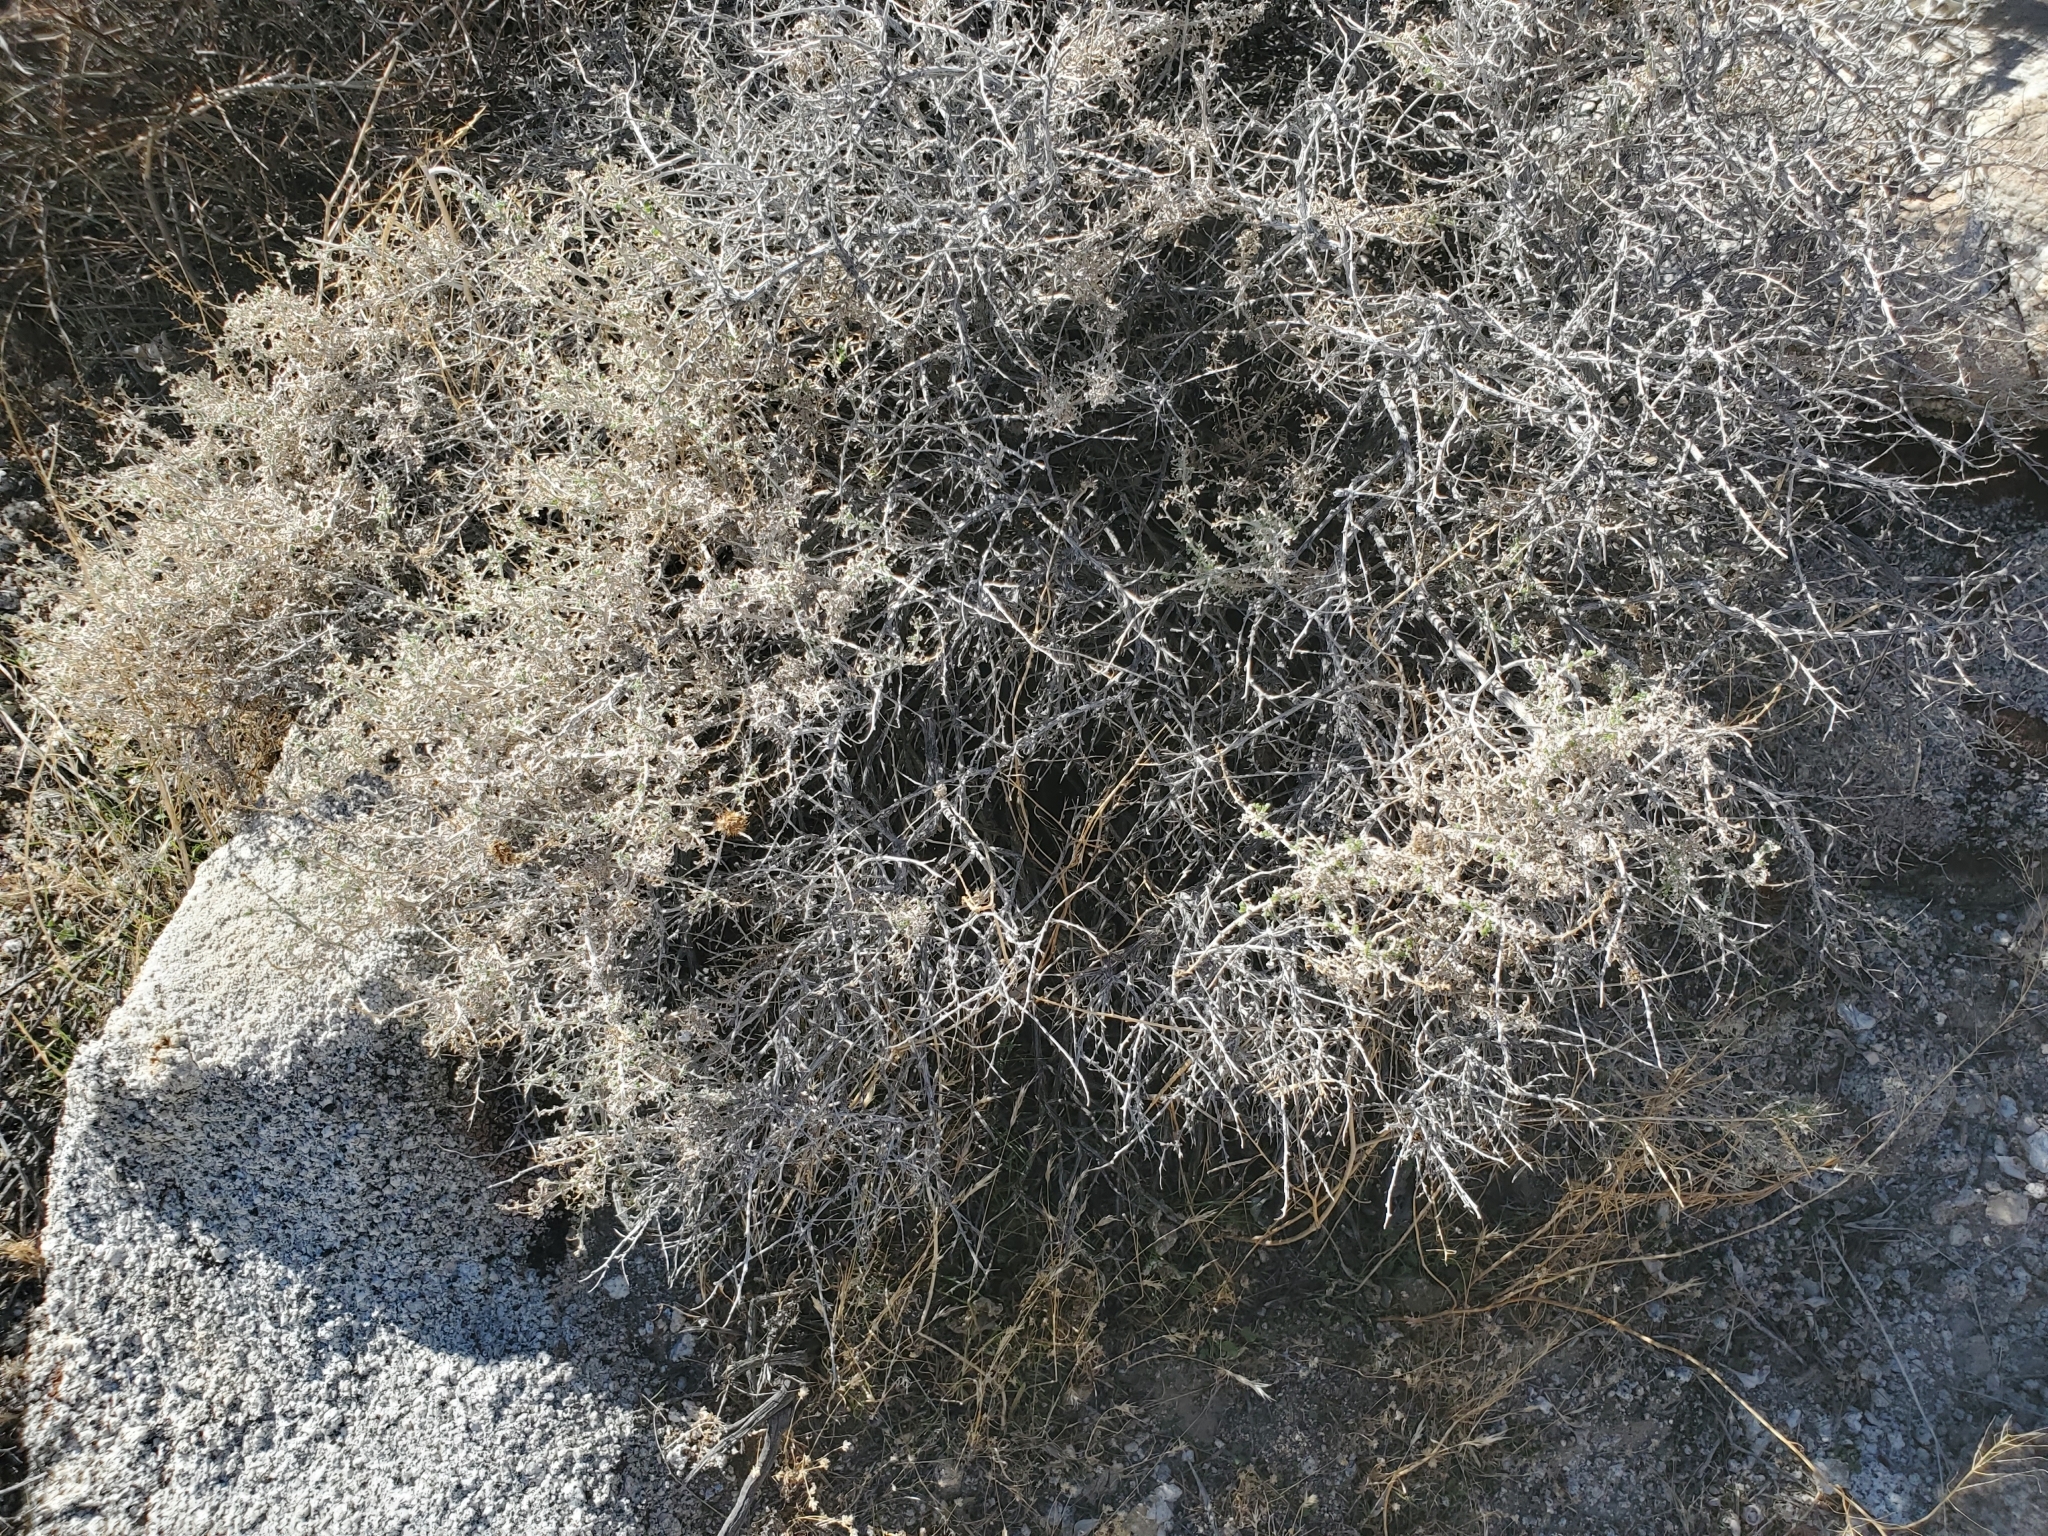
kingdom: Plantae
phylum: Tracheophyta
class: Magnoliopsida
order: Asterales
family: Asteraceae
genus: Ambrosia
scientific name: Ambrosia dumosa
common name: Bur-sage
